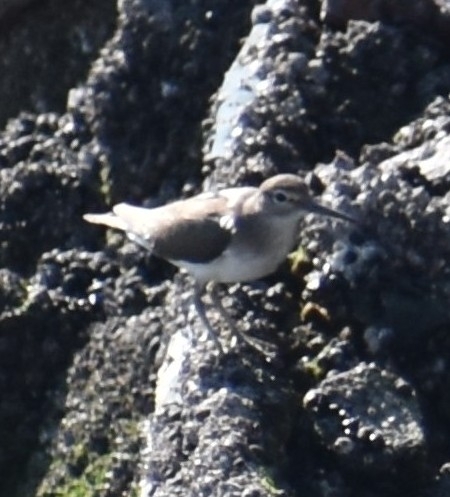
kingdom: Animalia
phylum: Chordata
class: Aves
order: Charadriiformes
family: Scolopacidae
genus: Actitis
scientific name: Actitis hypoleucos
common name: Common sandpiper
